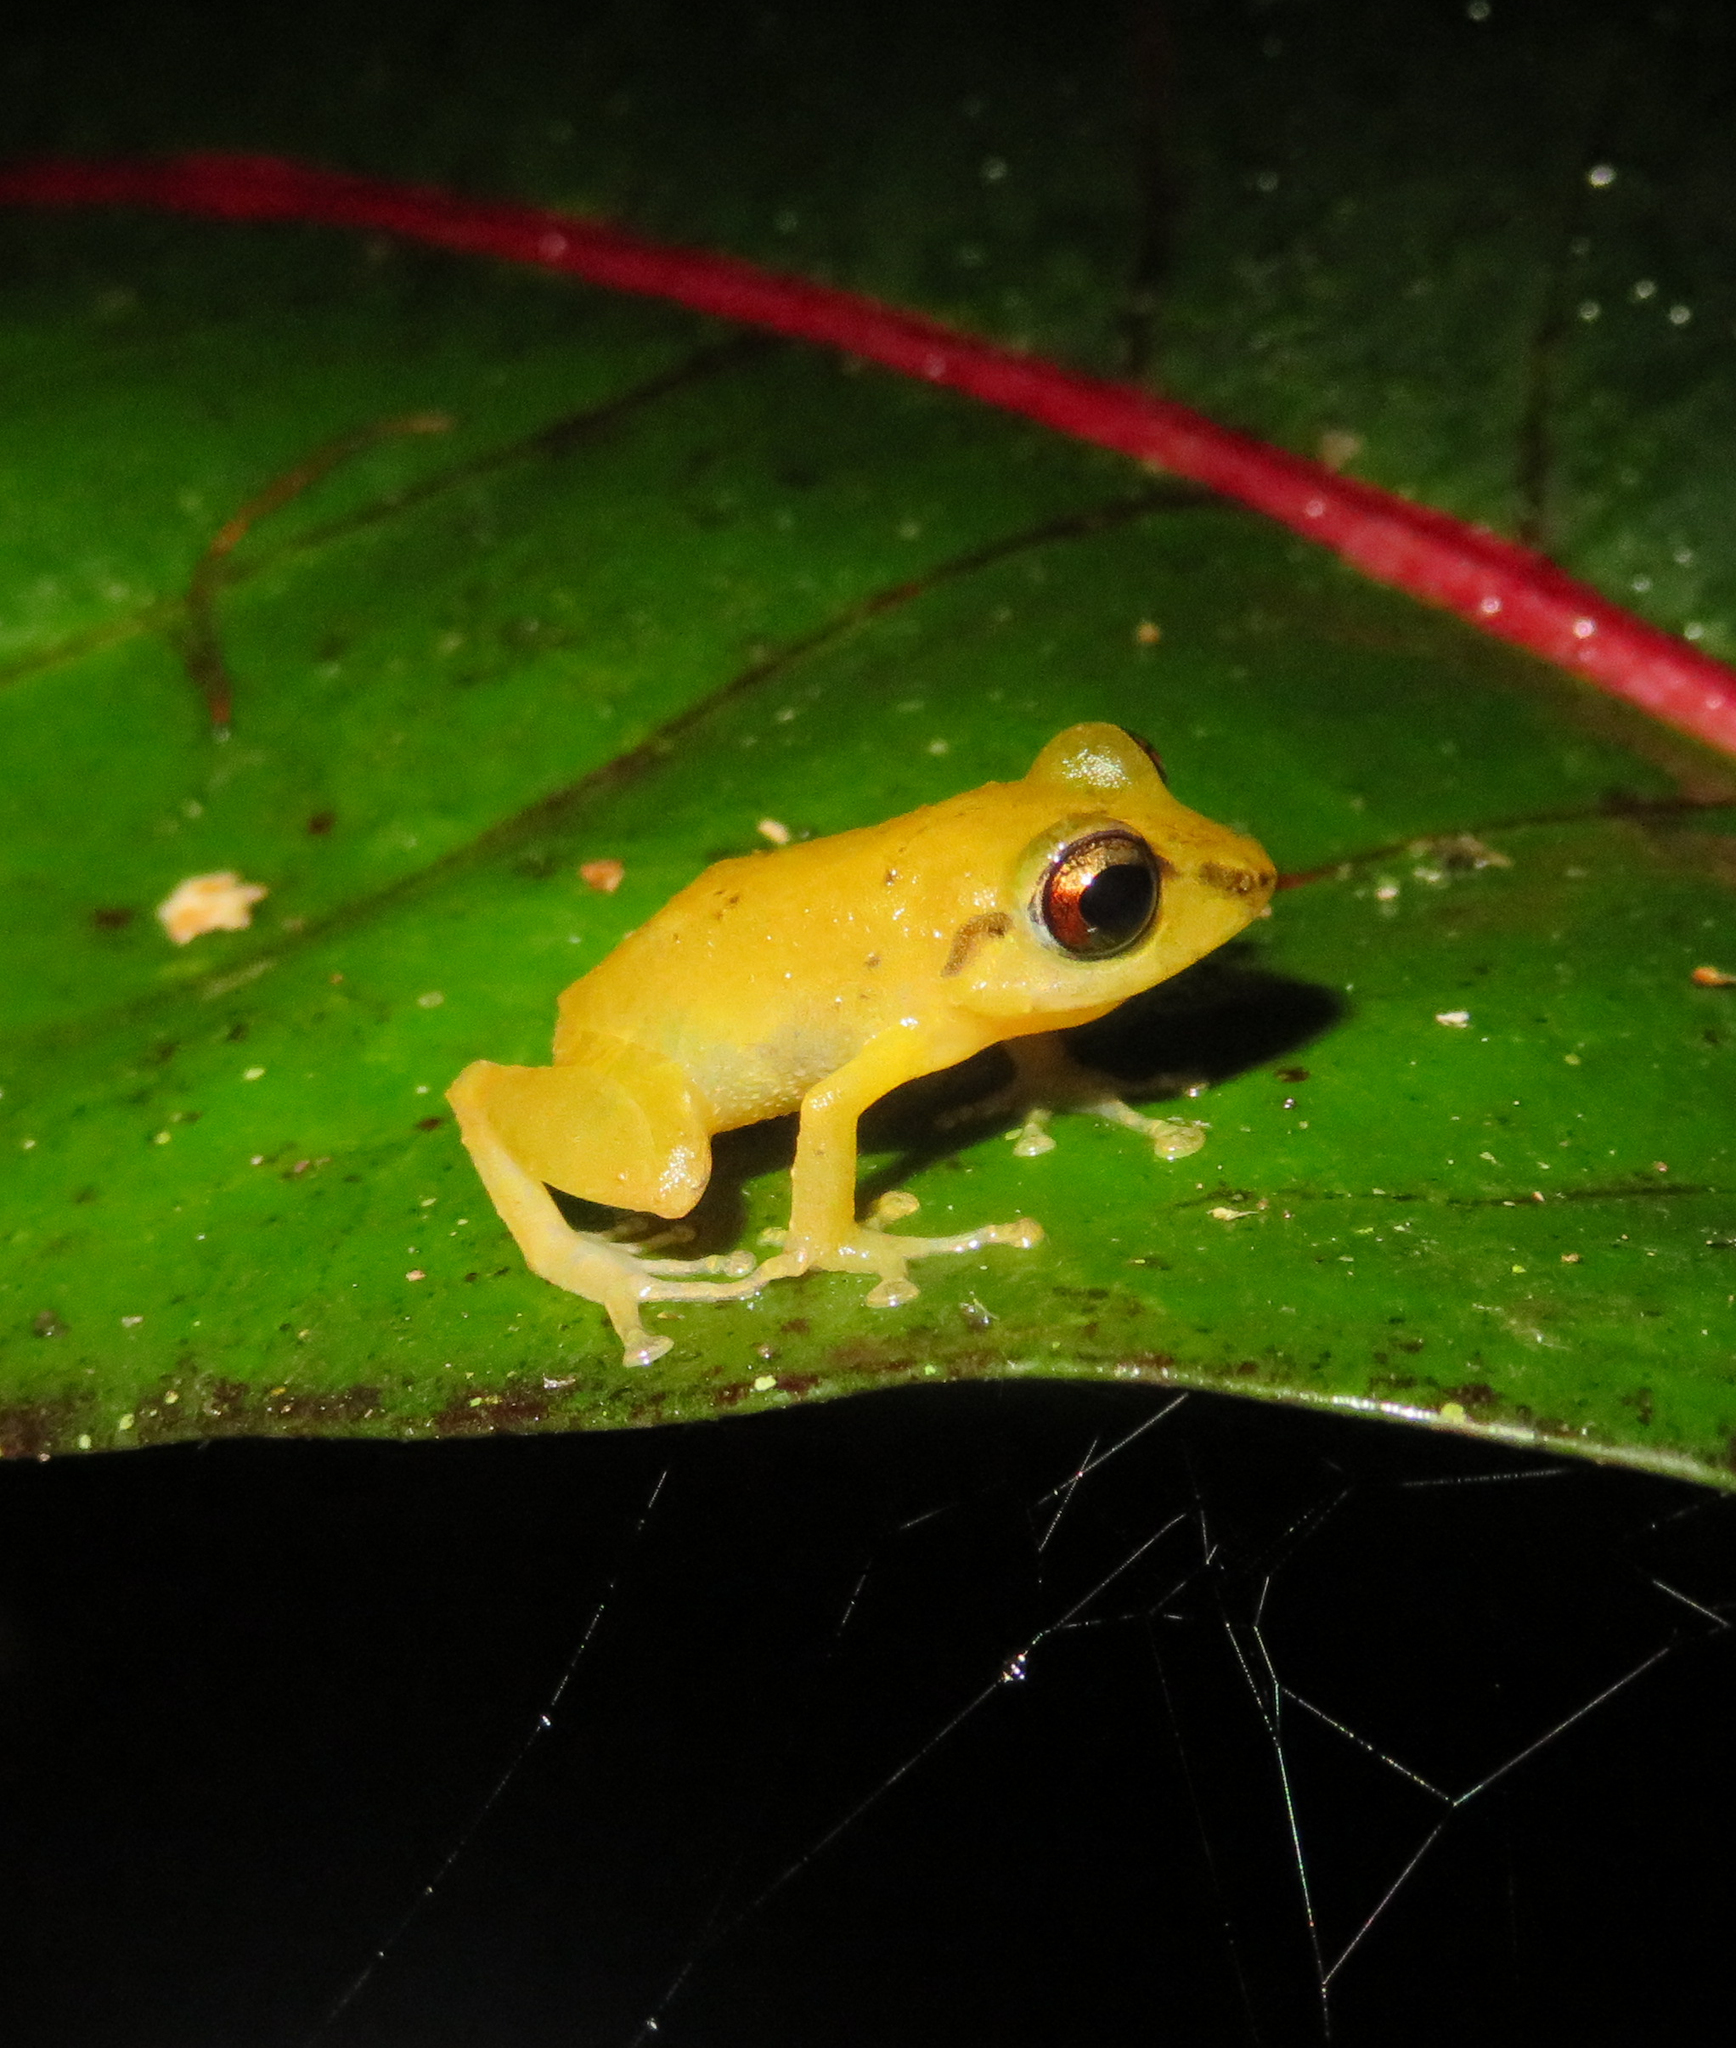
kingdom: Animalia
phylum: Chordata
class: Amphibia
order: Anura
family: Craugastoridae
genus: Pristimantis
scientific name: Pristimantis ridens
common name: Rio san juan robber frog
